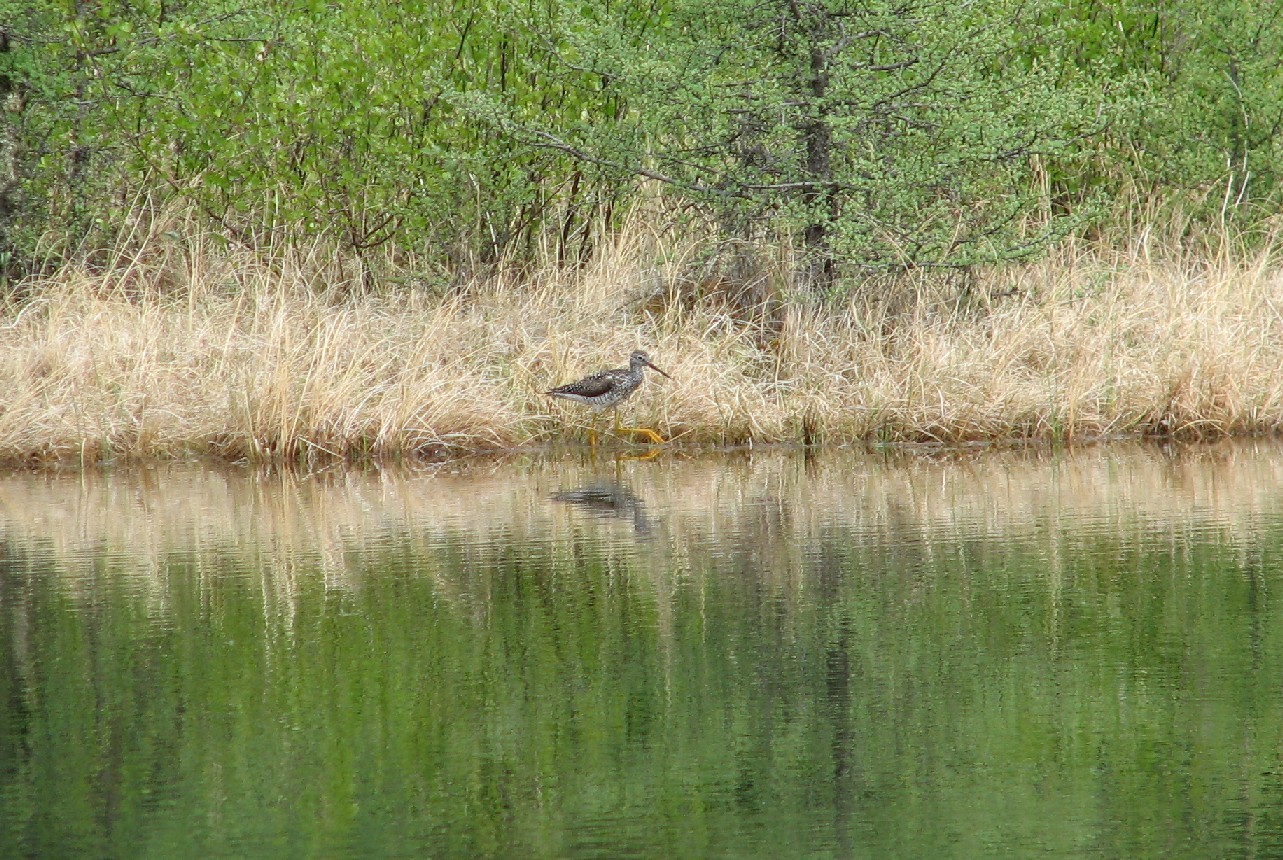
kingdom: Animalia
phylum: Chordata
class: Aves
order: Charadriiformes
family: Scolopacidae
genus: Tringa
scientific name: Tringa melanoleuca
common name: Greater yellowlegs
